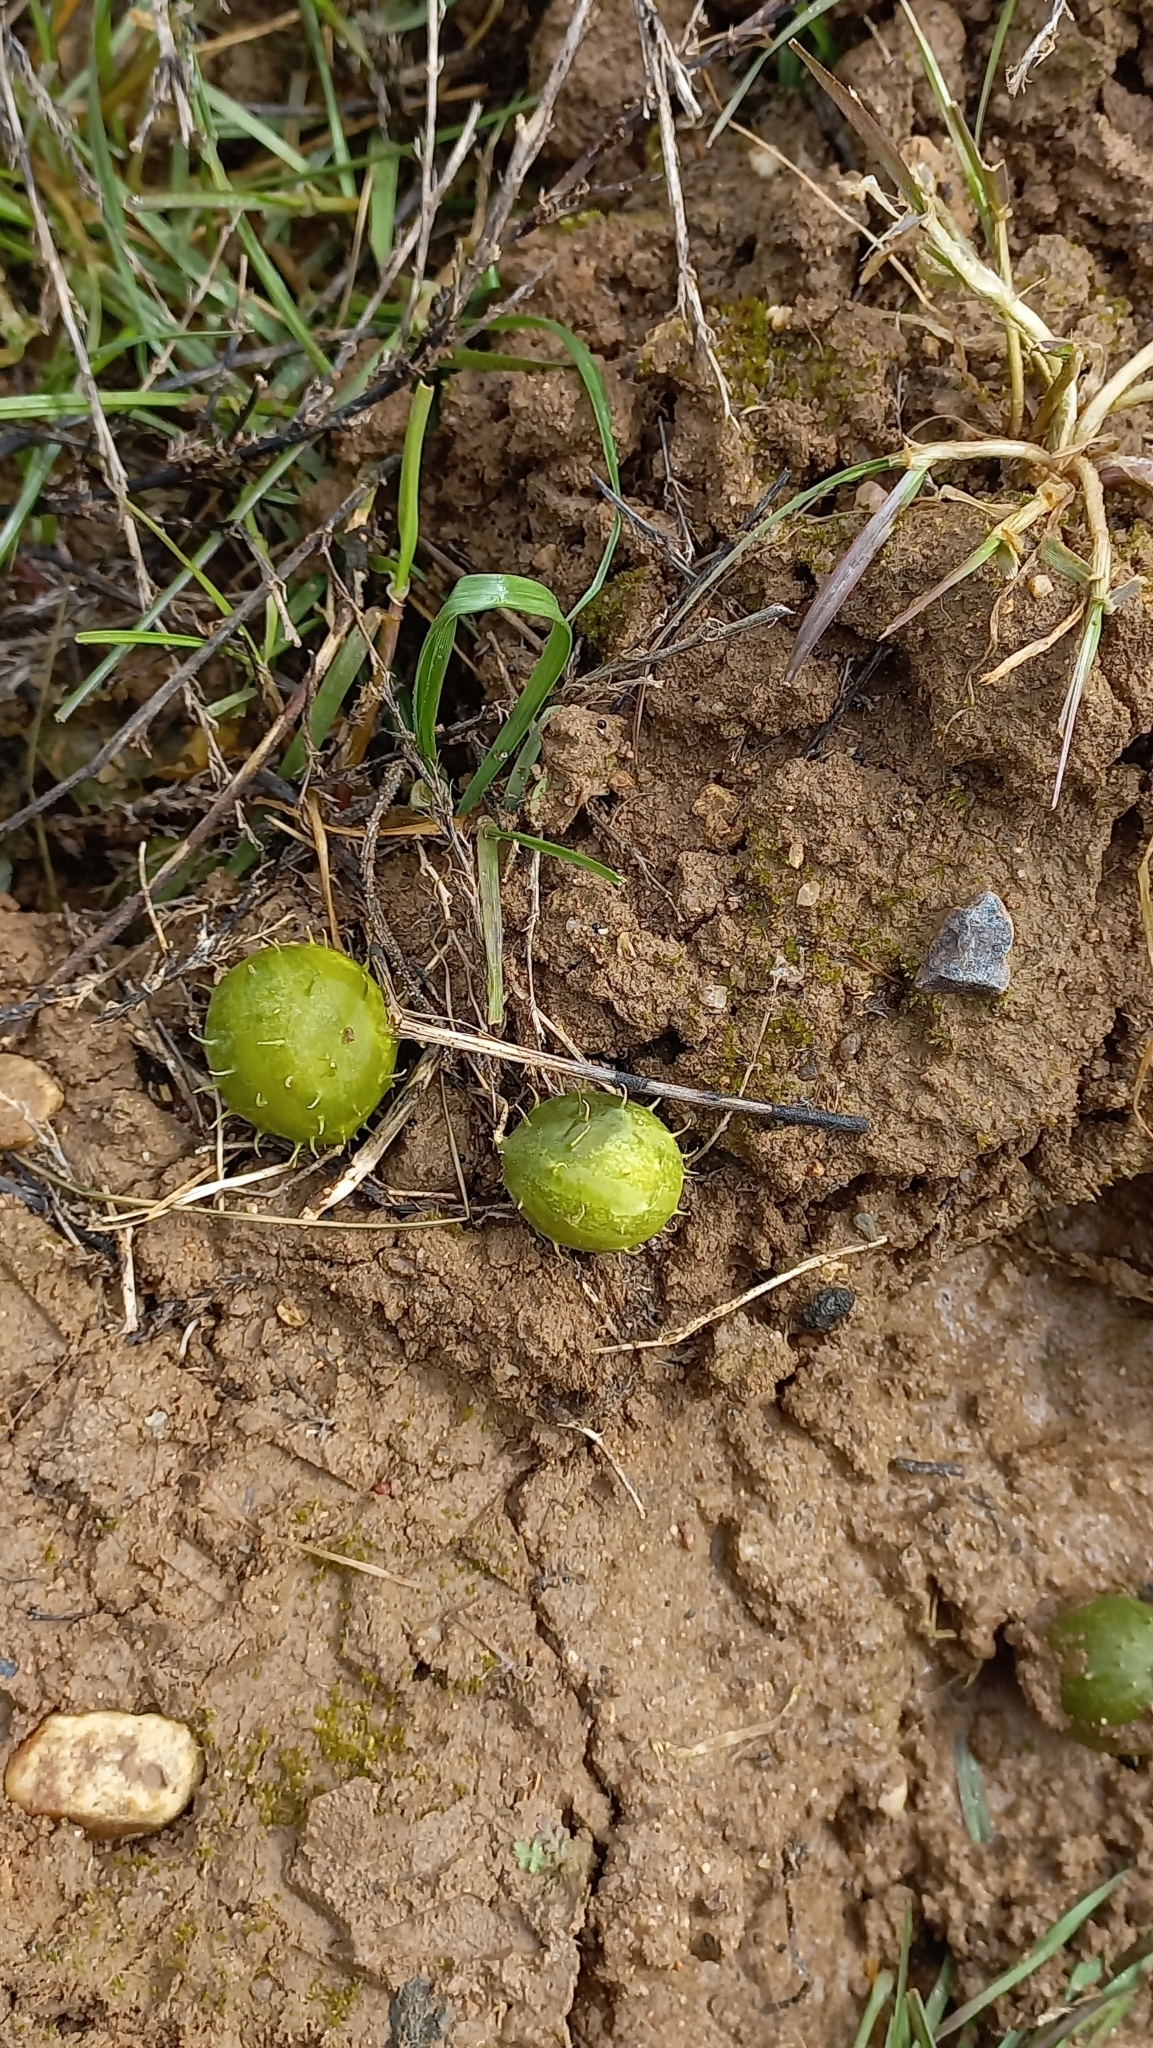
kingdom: Plantae
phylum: Tracheophyta
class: Magnoliopsida
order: Cucurbitales
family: Cucurbitaceae
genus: Cucumis
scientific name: Cucumis myriocarpus
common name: Gooseberry cucumber
